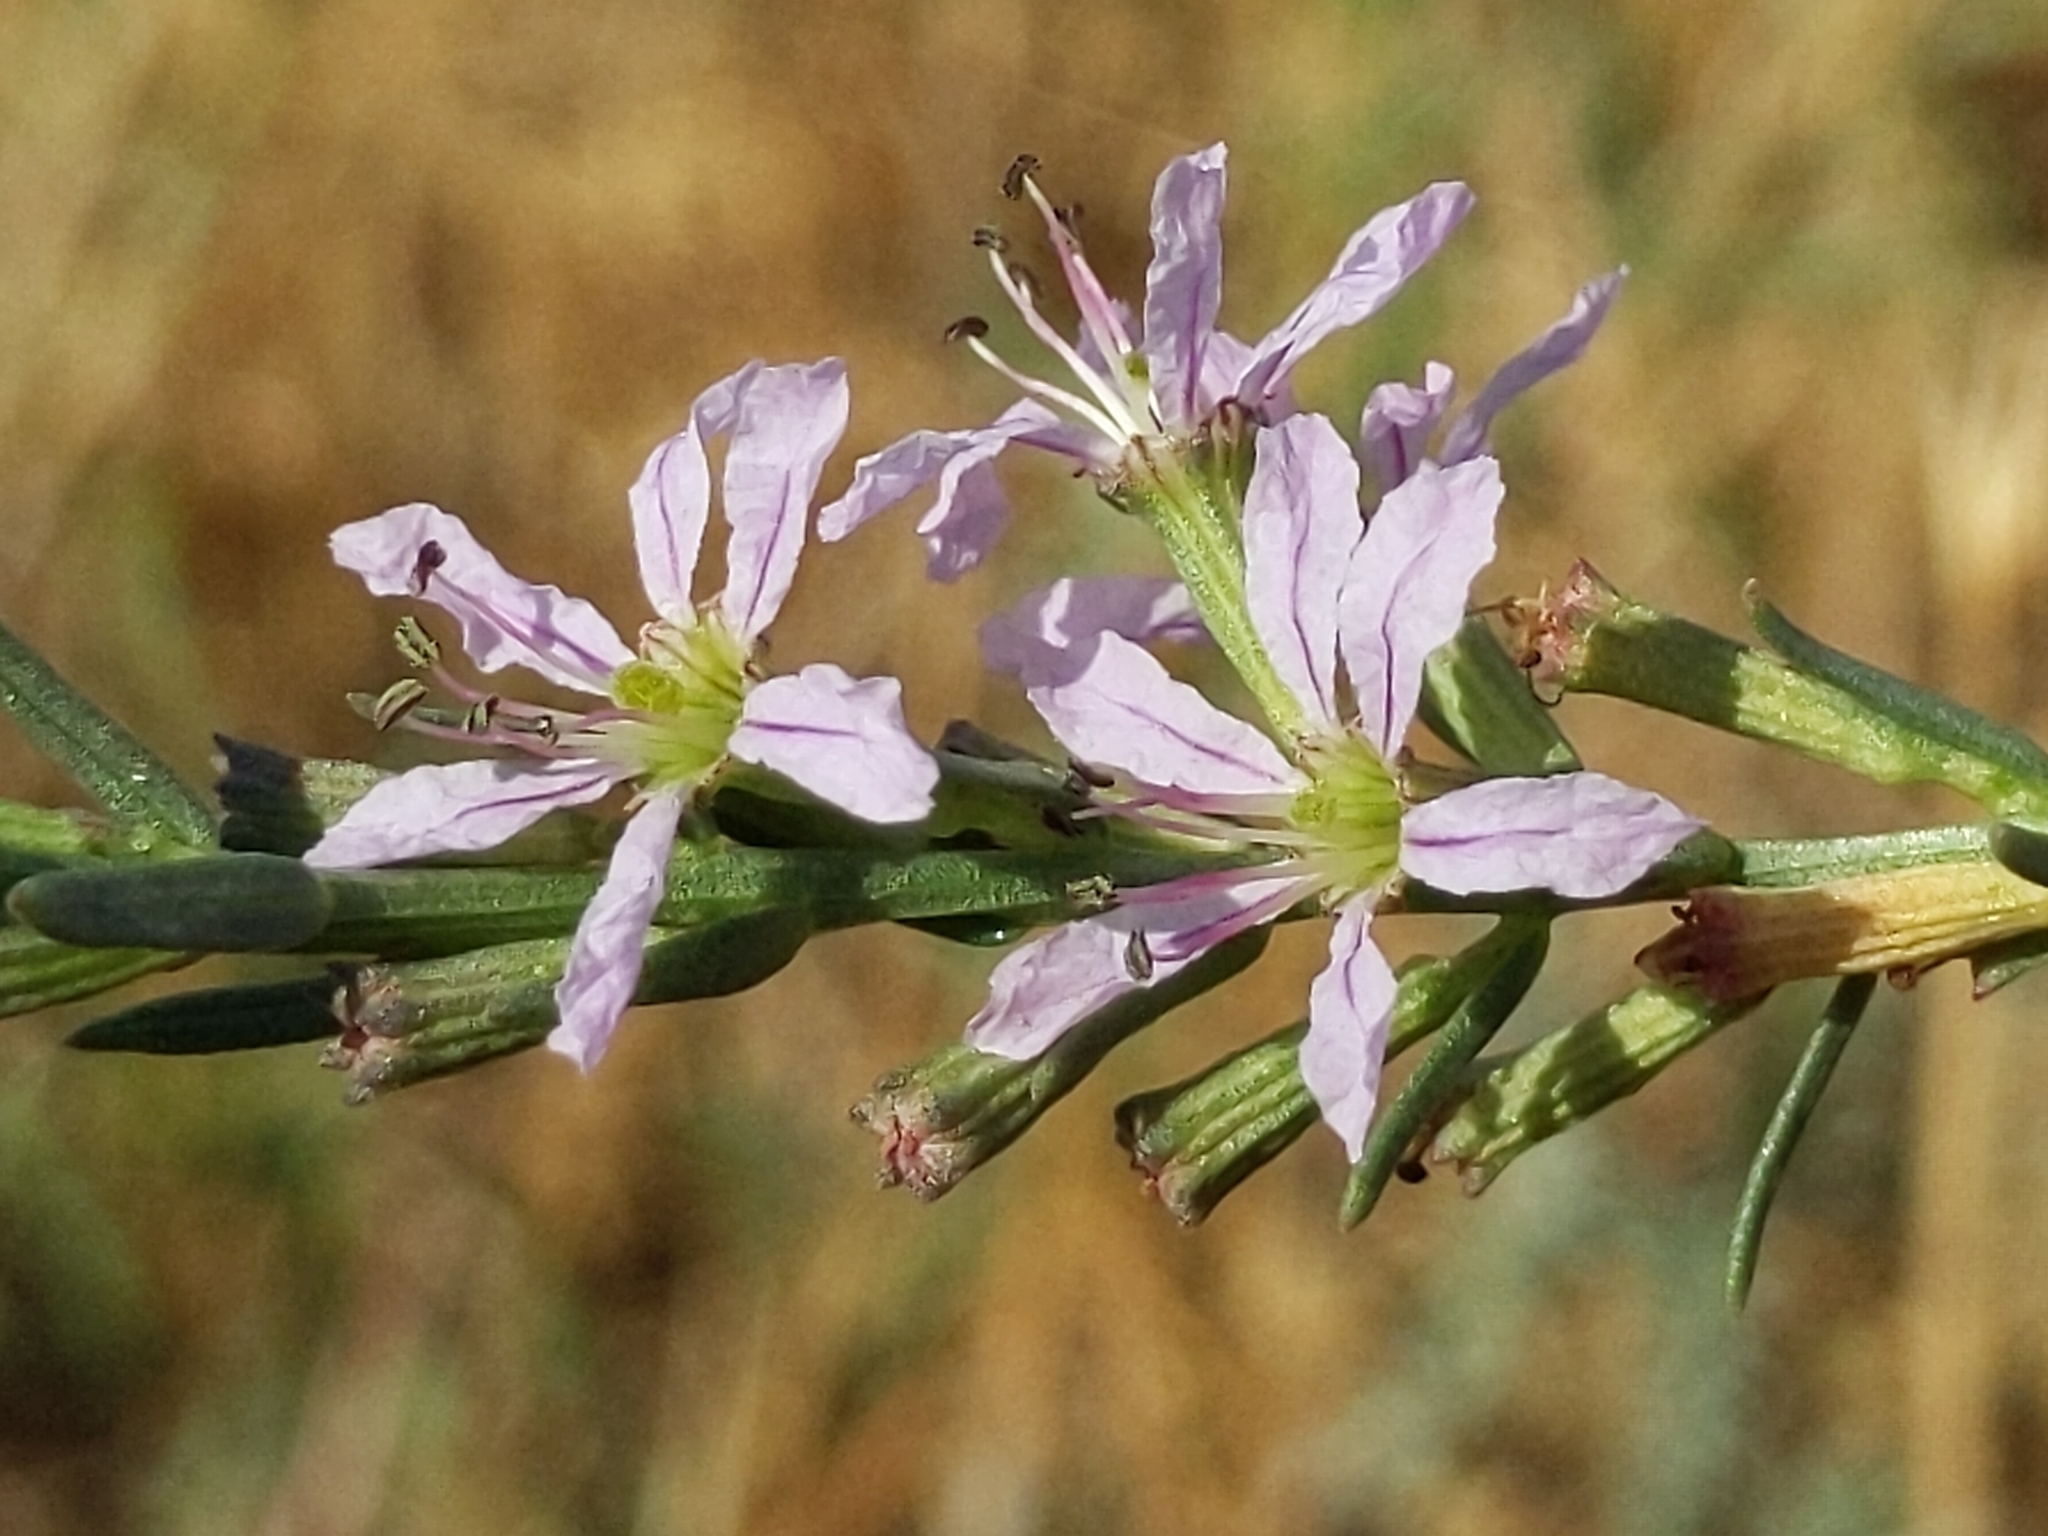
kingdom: Plantae
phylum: Tracheophyta
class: Magnoliopsida
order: Myrtales
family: Lythraceae
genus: Lythrum
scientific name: Lythrum californicum
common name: California loosestrife
